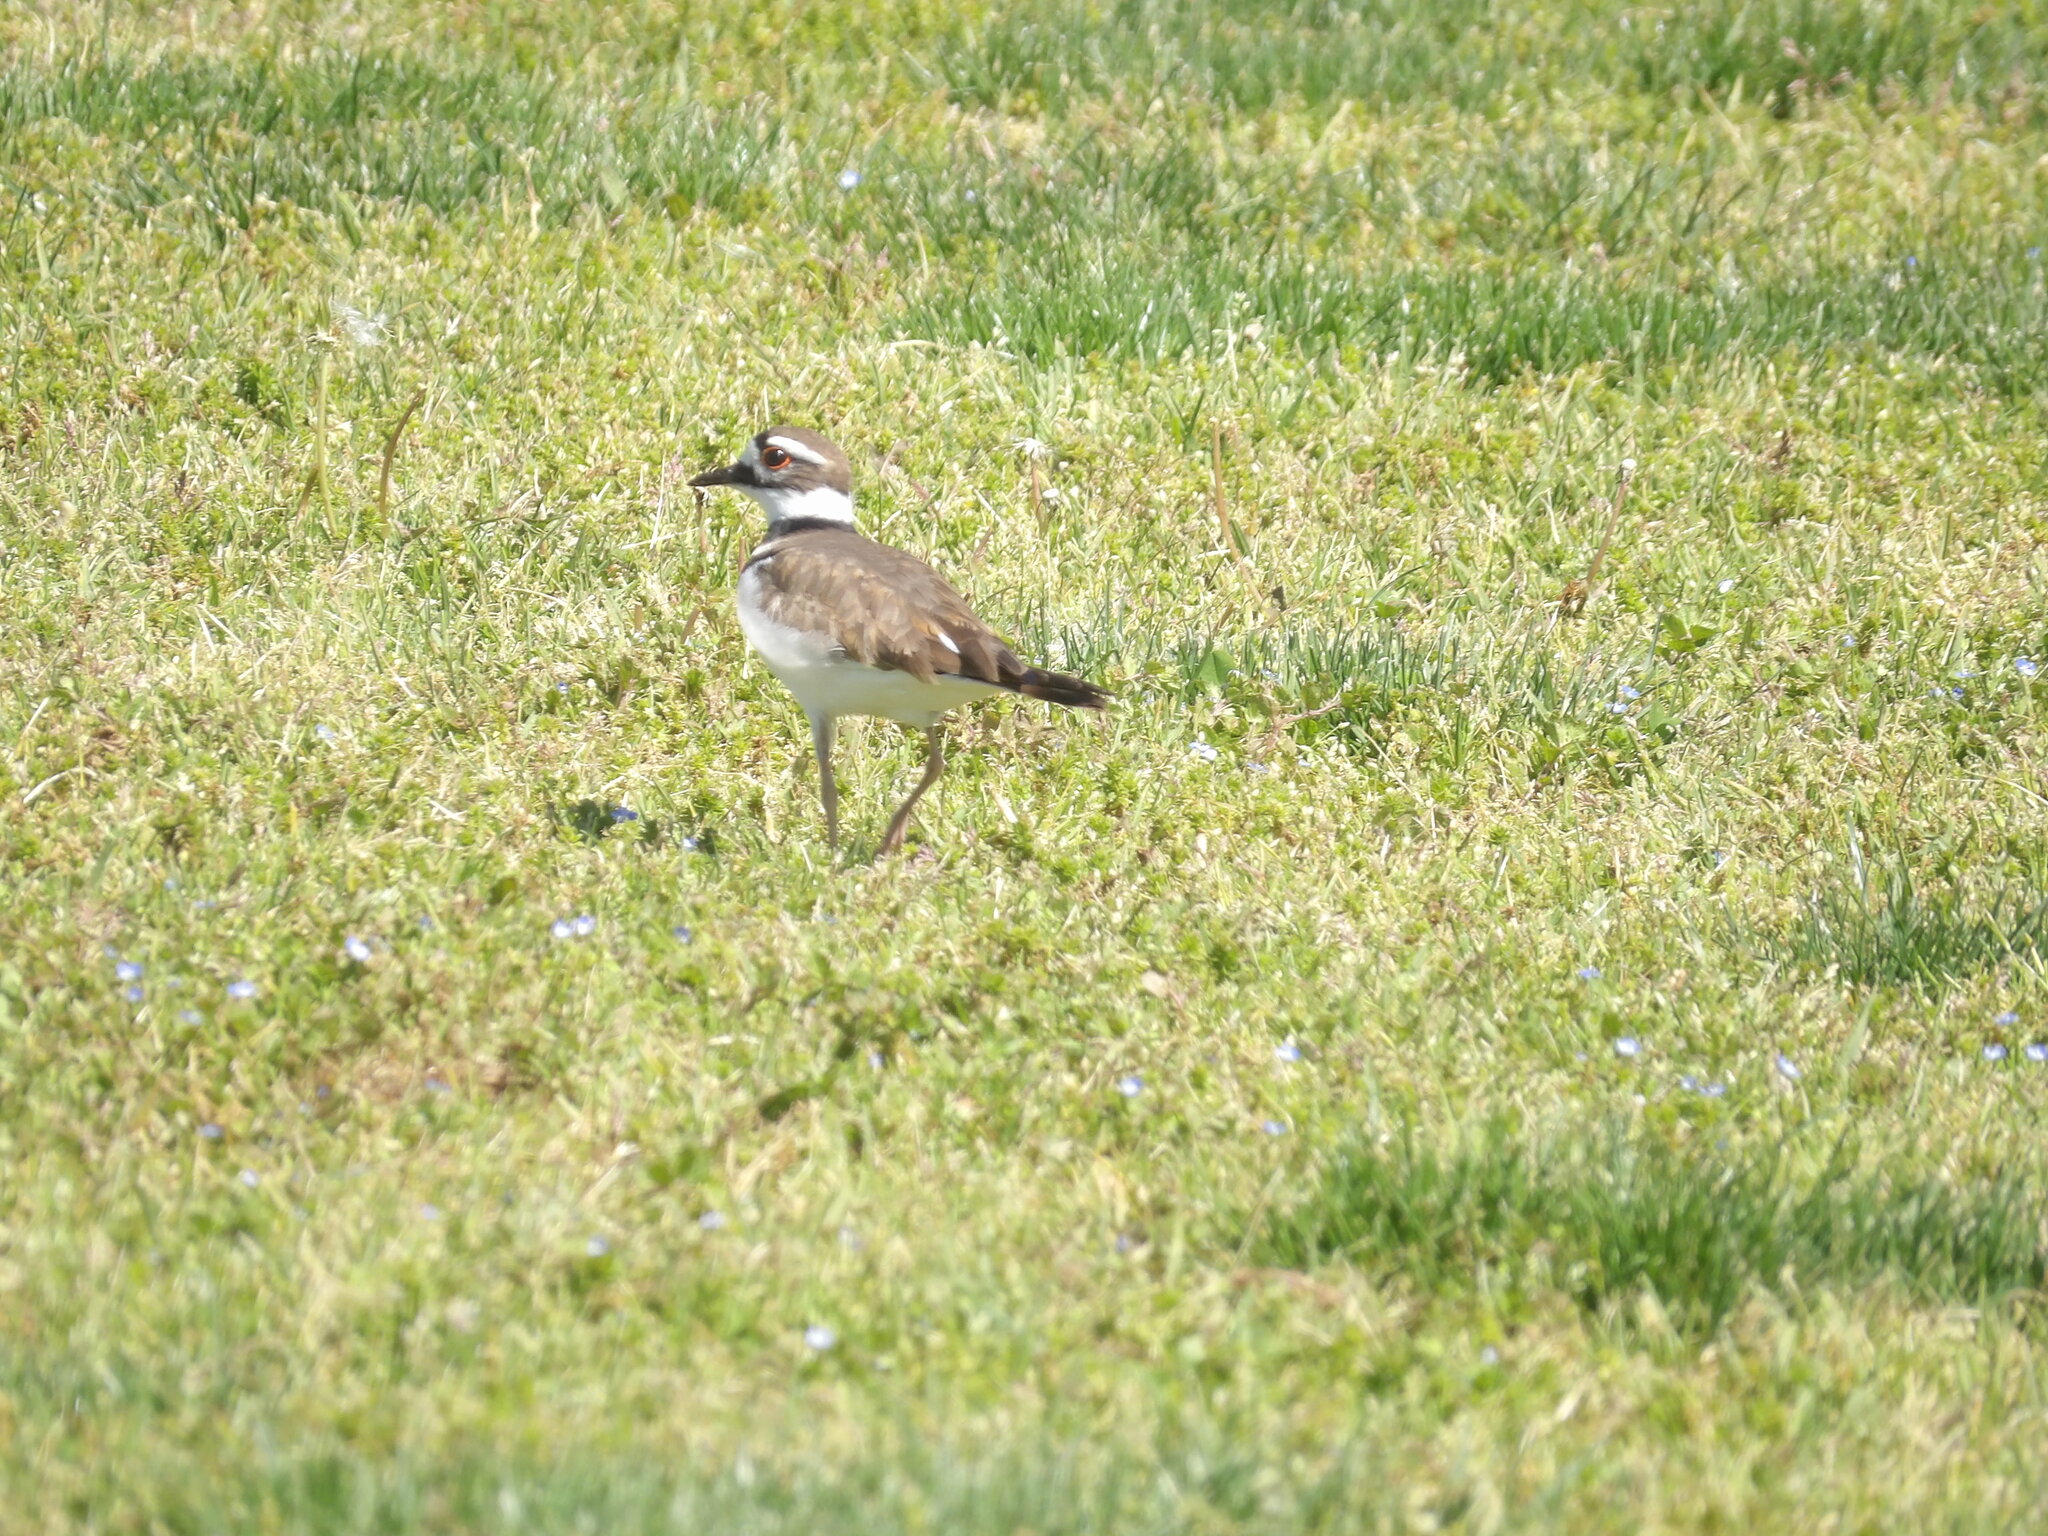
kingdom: Animalia
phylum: Chordata
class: Aves
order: Charadriiformes
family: Charadriidae
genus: Charadrius
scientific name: Charadrius vociferus
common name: Killdeer
